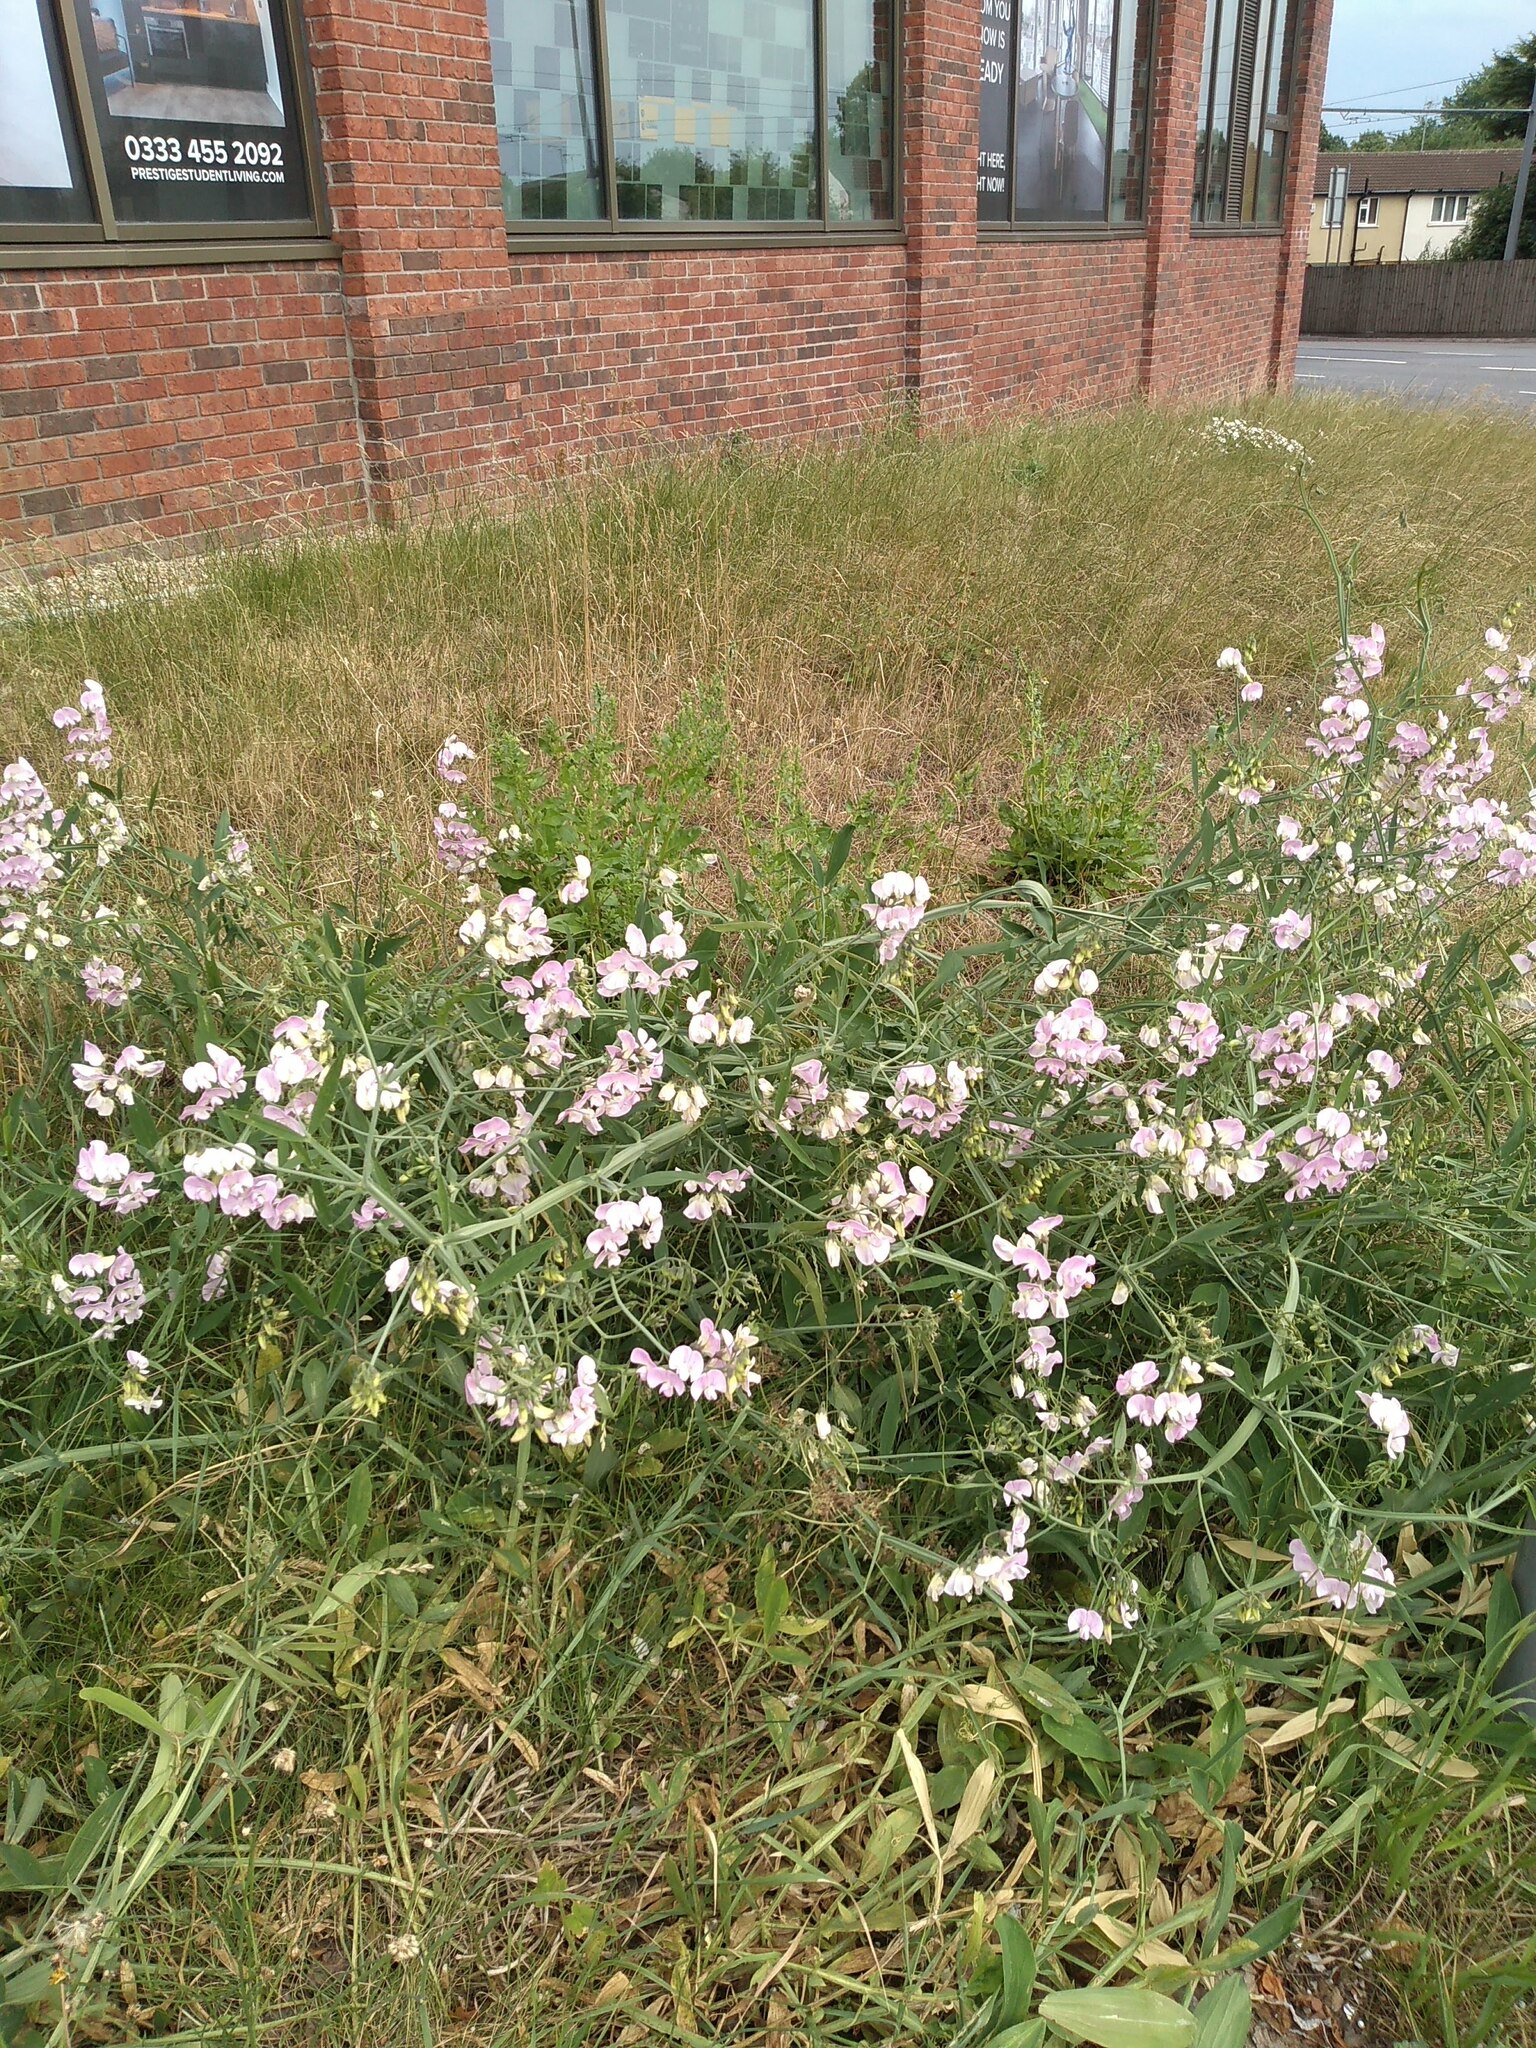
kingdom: Plantae
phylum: Tracheophyta
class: Magnoliopsida
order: Fabales
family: Fabaceae
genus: Lathyrus
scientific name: Lathyrus latifolius
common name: Perennial pea
